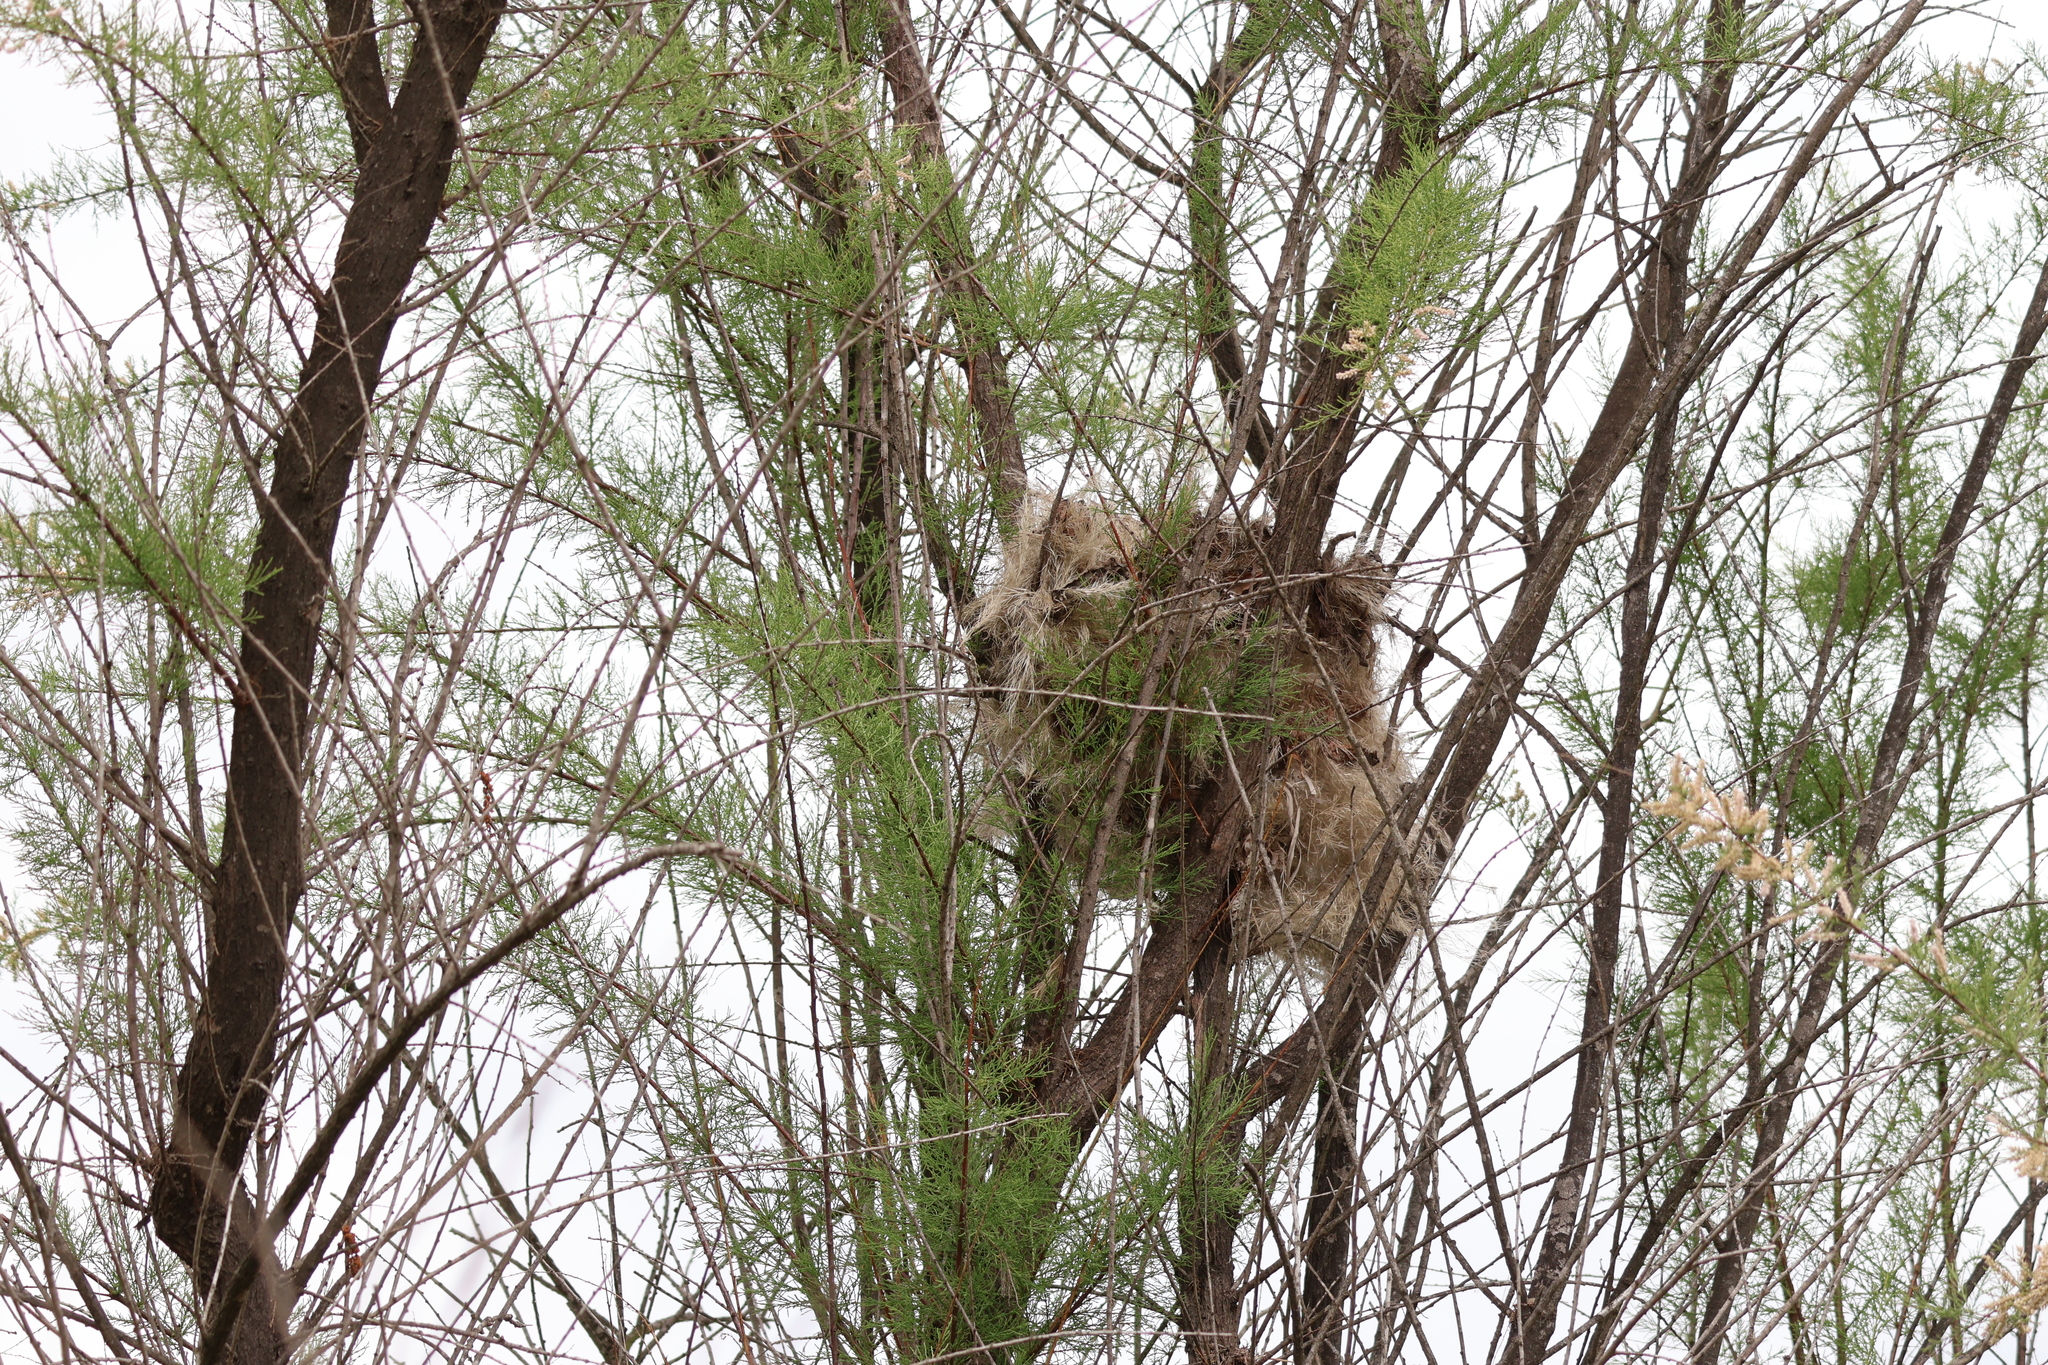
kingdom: Animalia
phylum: Chordata
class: Aves
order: Passeriformes
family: Estrildidae
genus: Lonchura
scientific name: Lonchura punctulata
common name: Scaly-breasted munia
